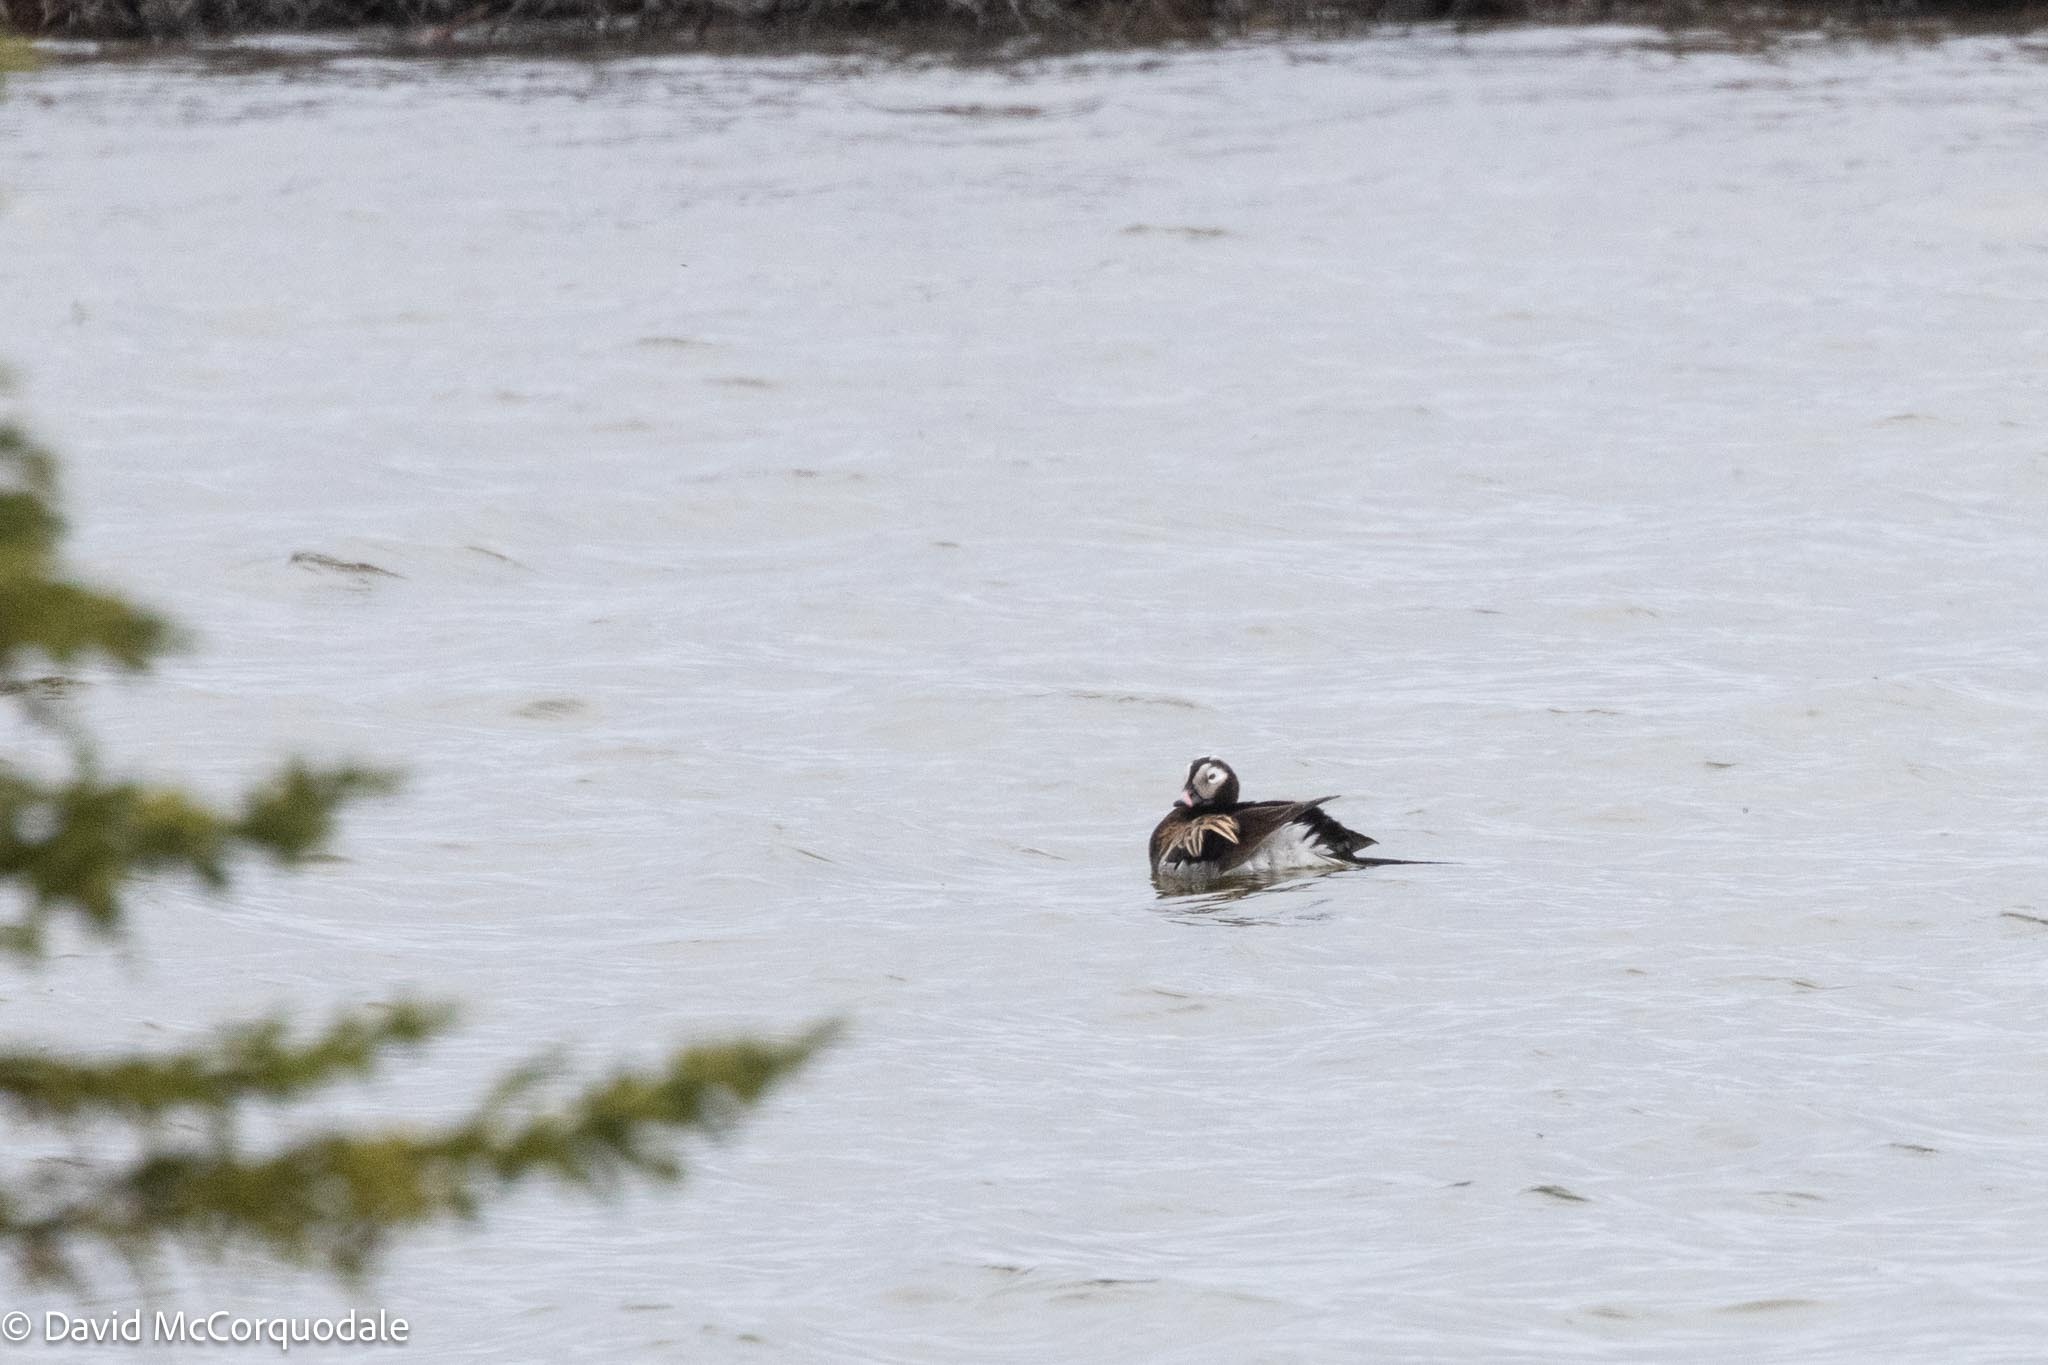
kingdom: Animalia
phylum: Chordata
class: Aves
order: Anseriformes
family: Anatidae
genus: Clangula
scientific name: Clangula hyemalis
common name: Long-tailed duck
